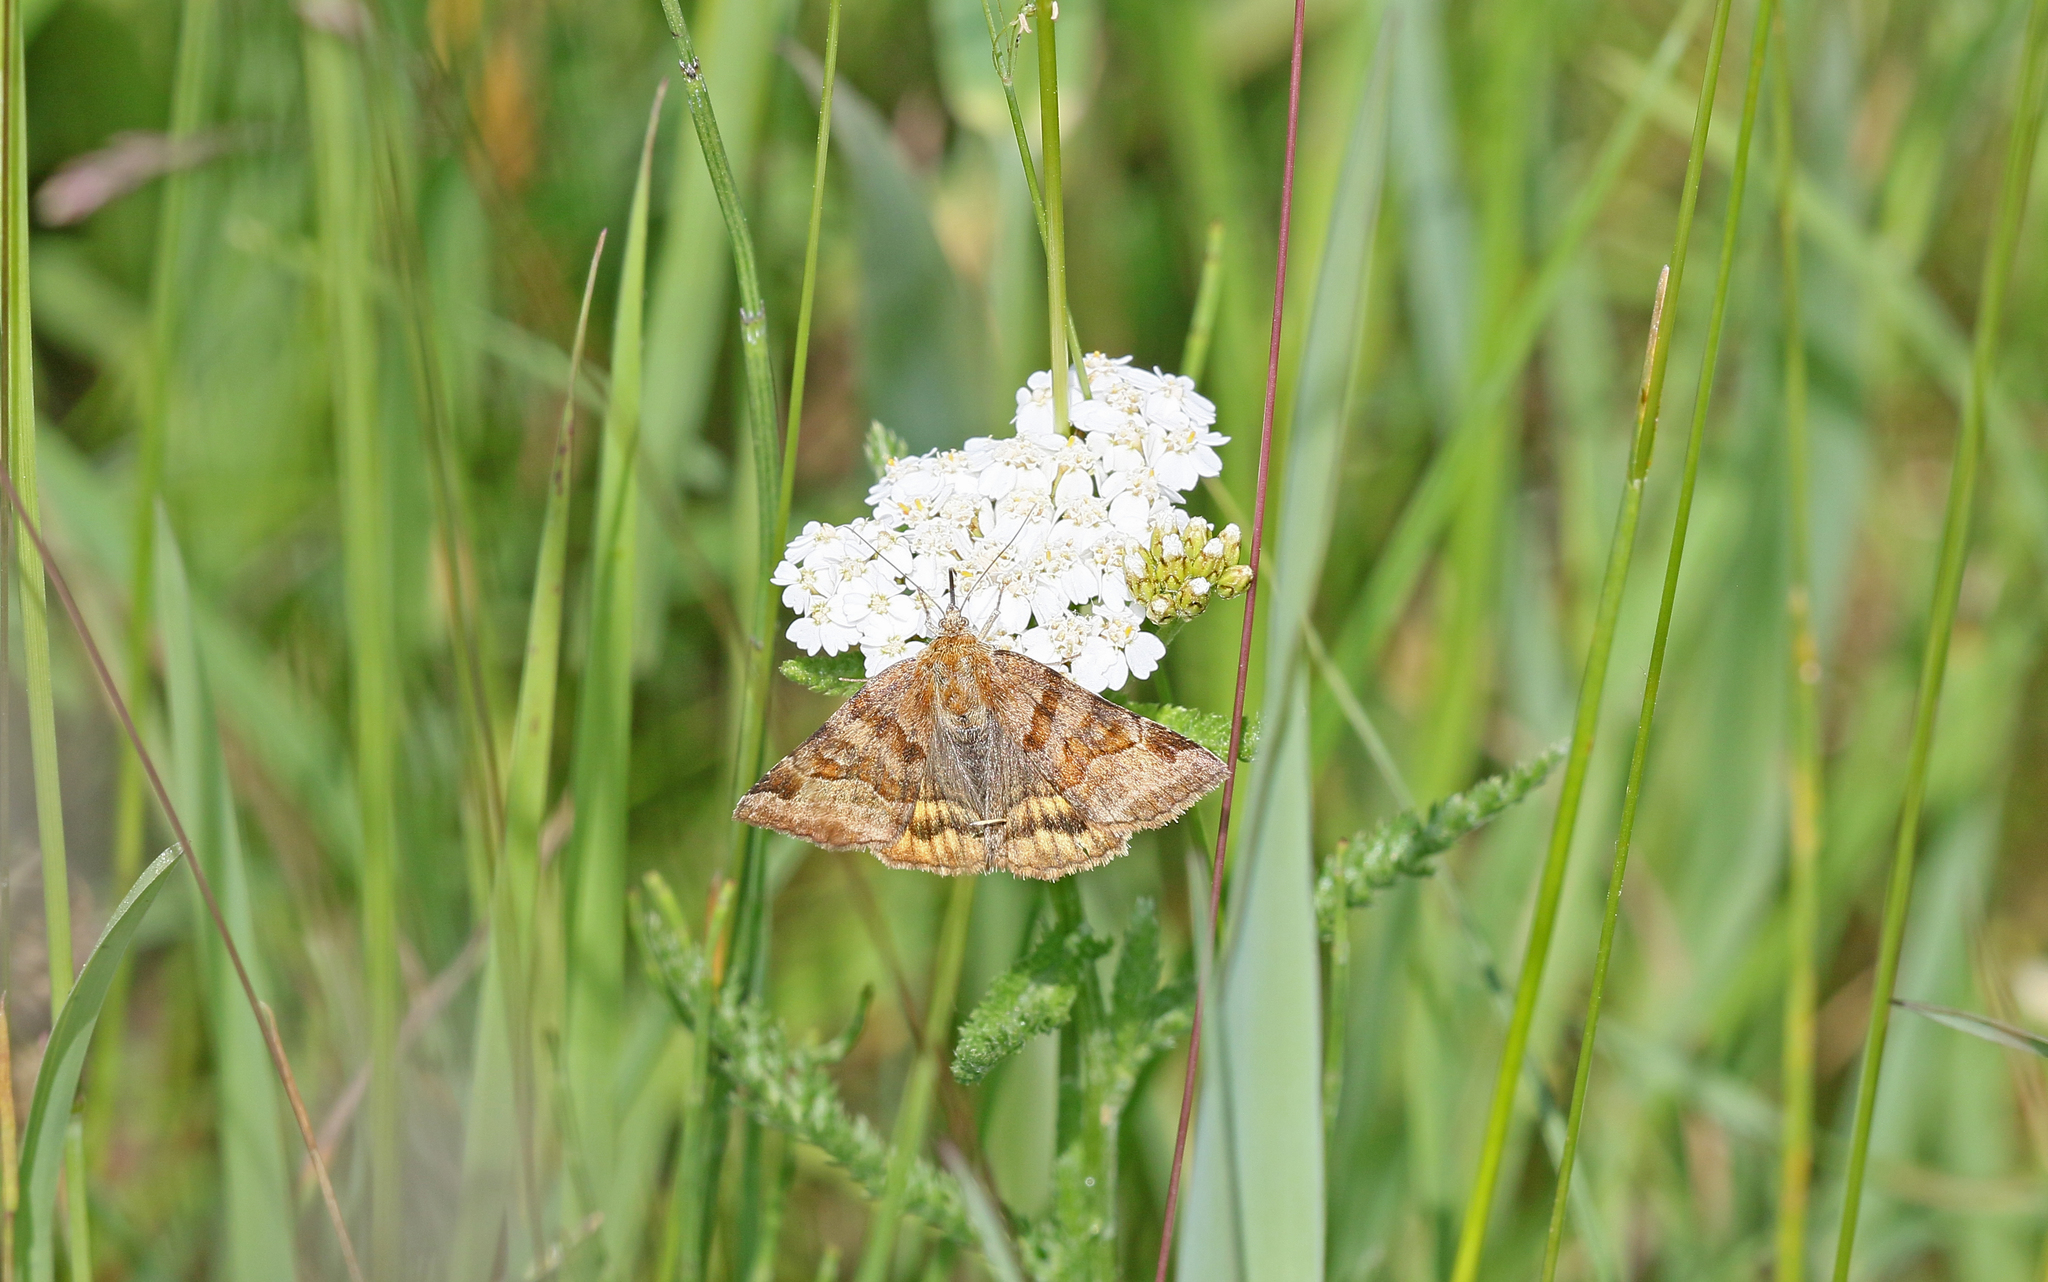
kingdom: Animalia
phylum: Arthropoda
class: Insecta
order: Lepidoptera
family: Erebidae
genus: Euclidia
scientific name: Euclidia glyphica
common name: Burnet companion
